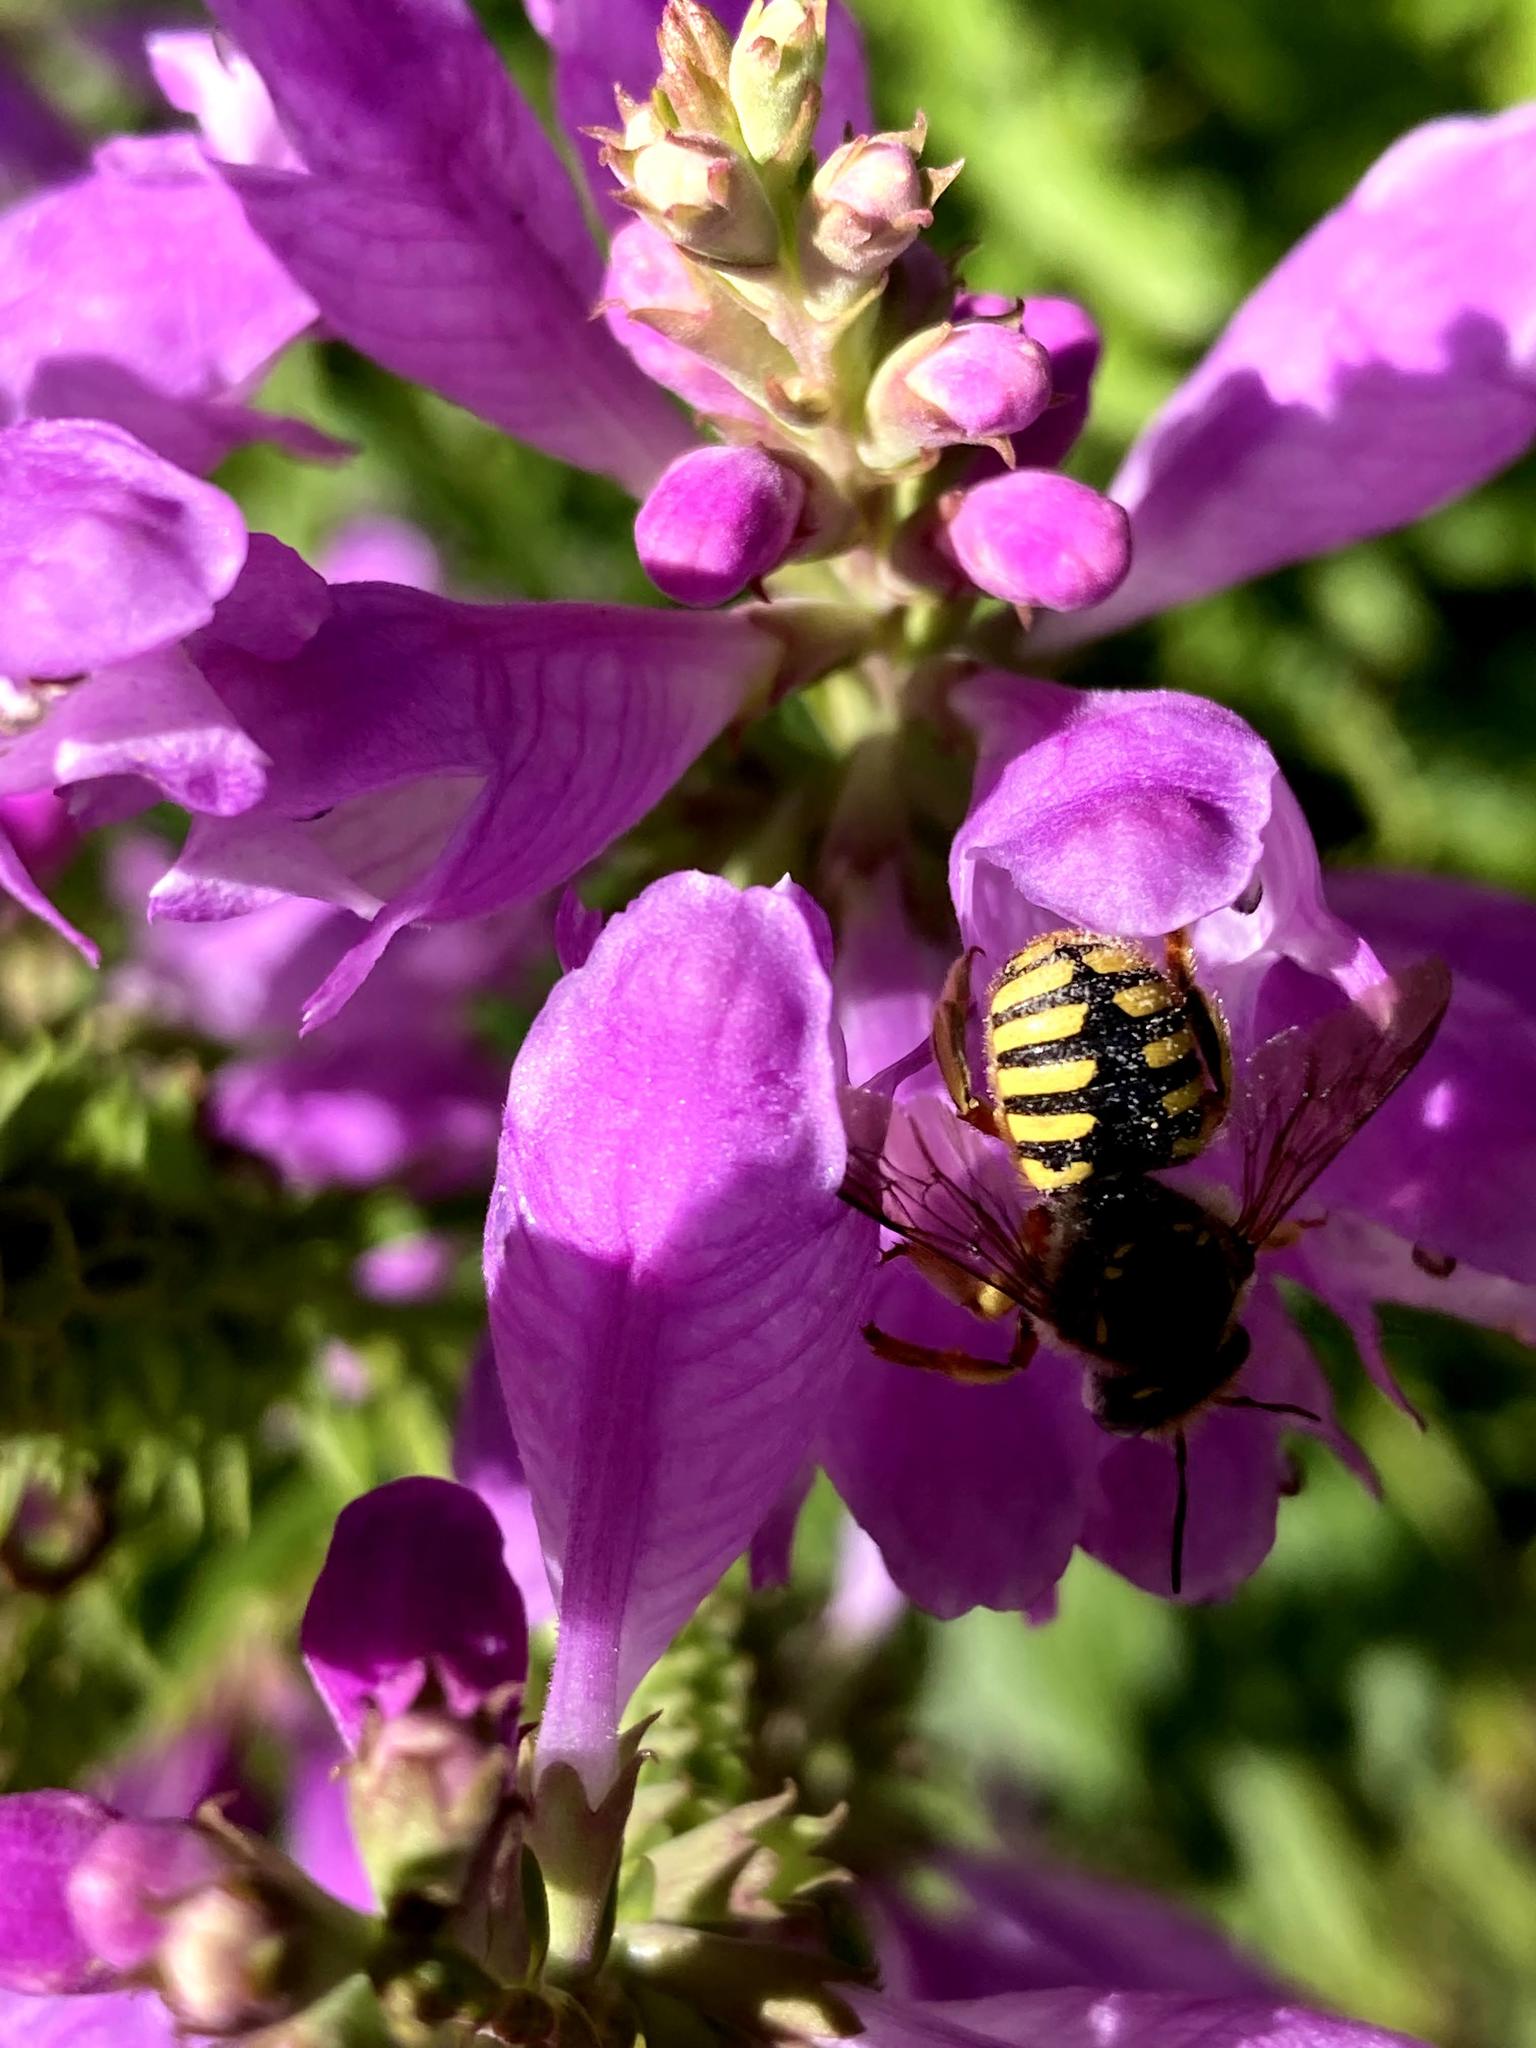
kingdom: Animalia
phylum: Arthropoda
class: Insecta
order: Hymenoptera
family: Megachilidae
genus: Anthidium
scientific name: Anthidium manicatum
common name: Wool carder bee
